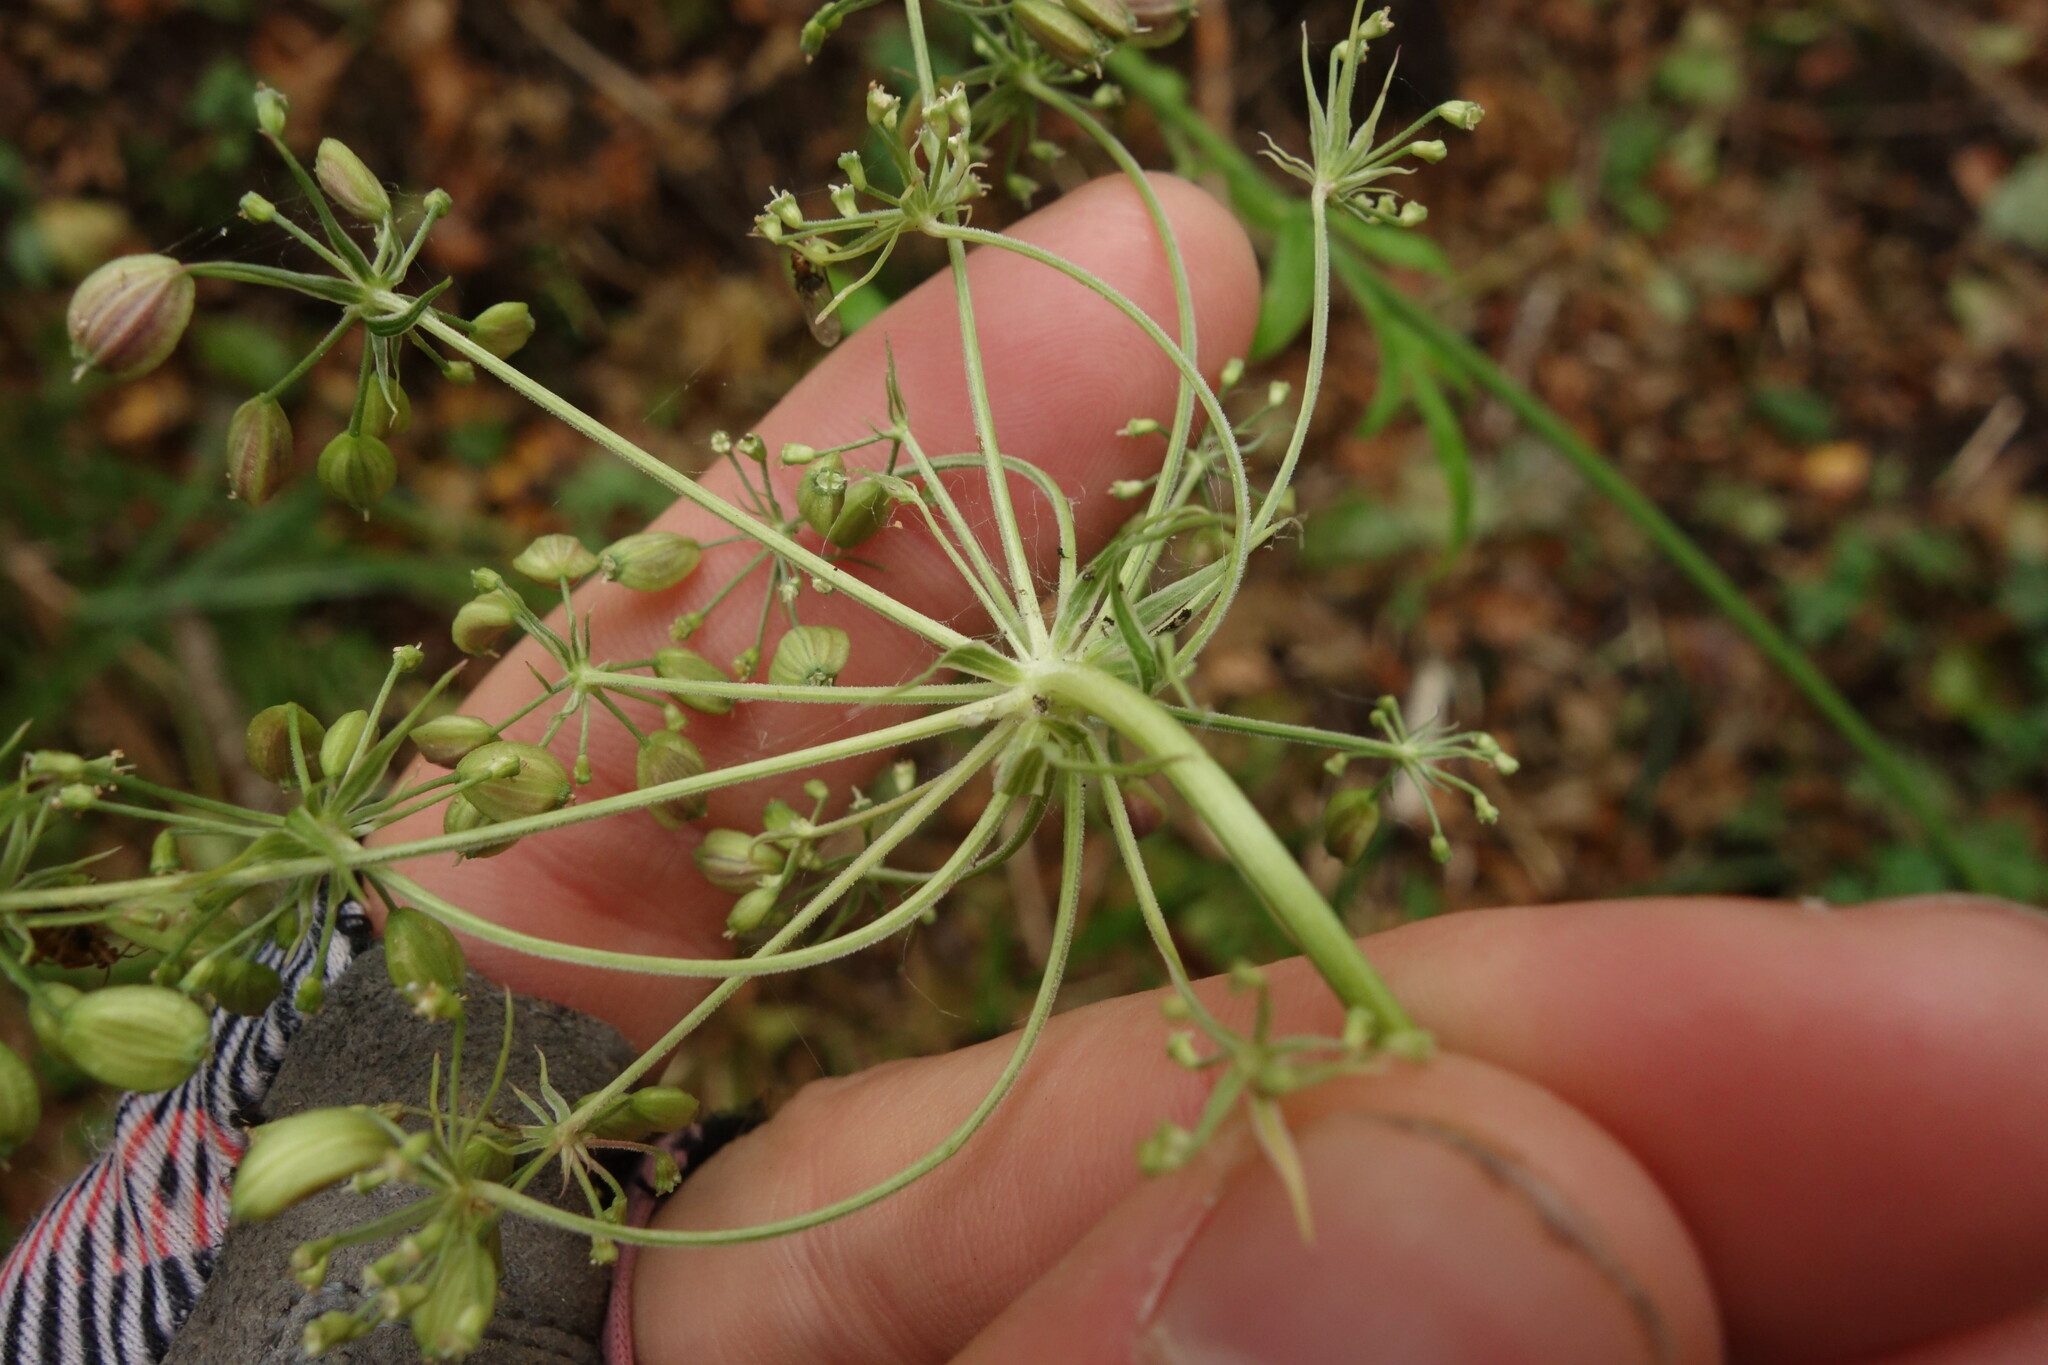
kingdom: Plantae
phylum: Tracheophyta
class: Magnoliopsida
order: Apiales
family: Apiaceae
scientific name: Apiaceae
